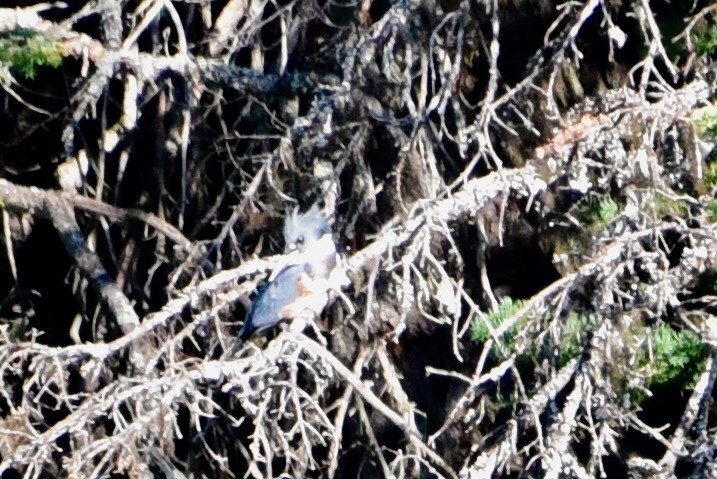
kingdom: Animalia
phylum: Chordata
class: Aves
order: Coraciiformes
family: Alcedinidae
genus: Megaceryle
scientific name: Megaceryle alcyon
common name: Belted kingfisher
